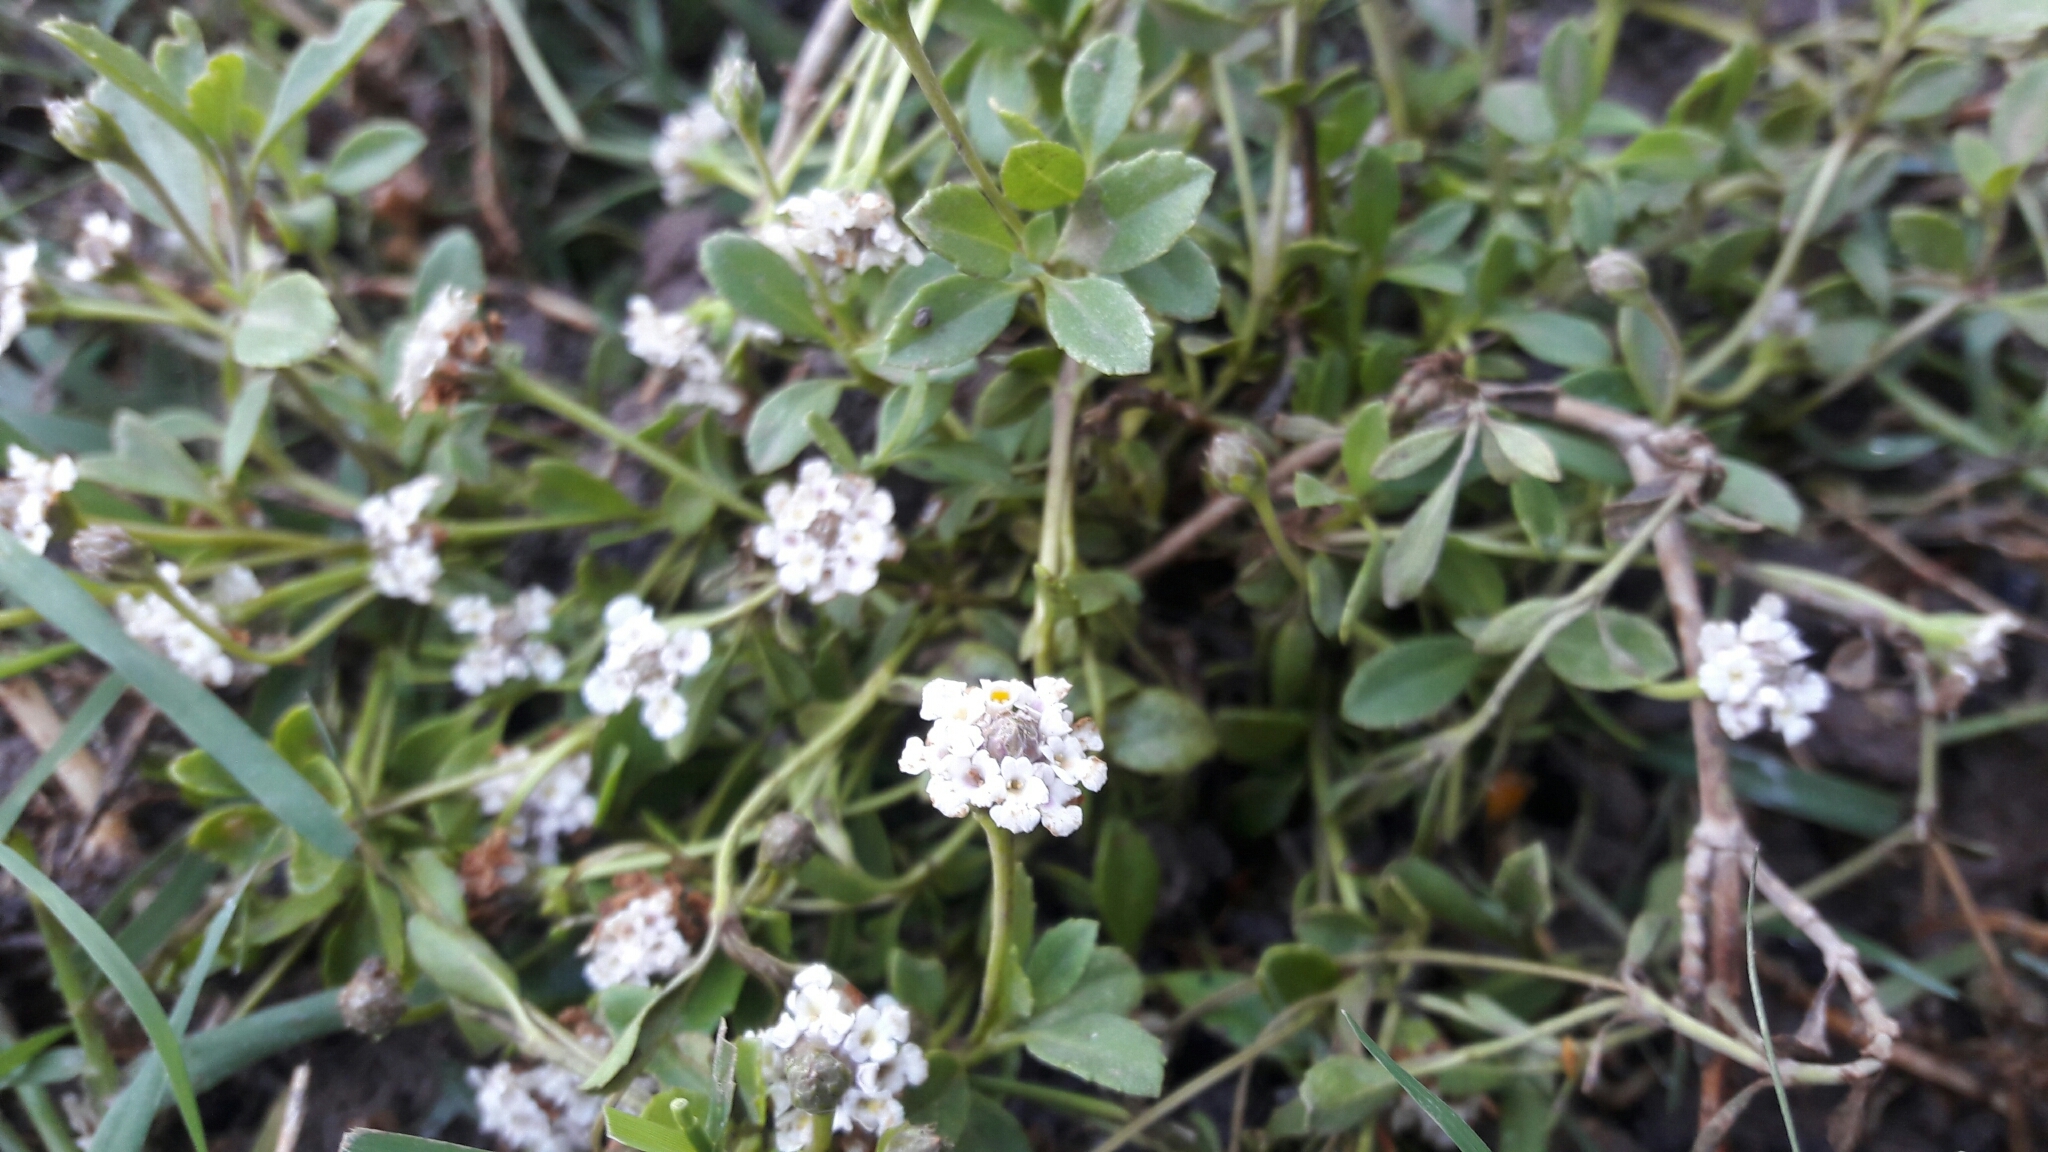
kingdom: Plantae
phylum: Tracheophyta
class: Magnoliopsida
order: Lamiales
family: Verbenaceae
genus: Phyla
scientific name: Phyla nodiflora
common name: Frogfruit
